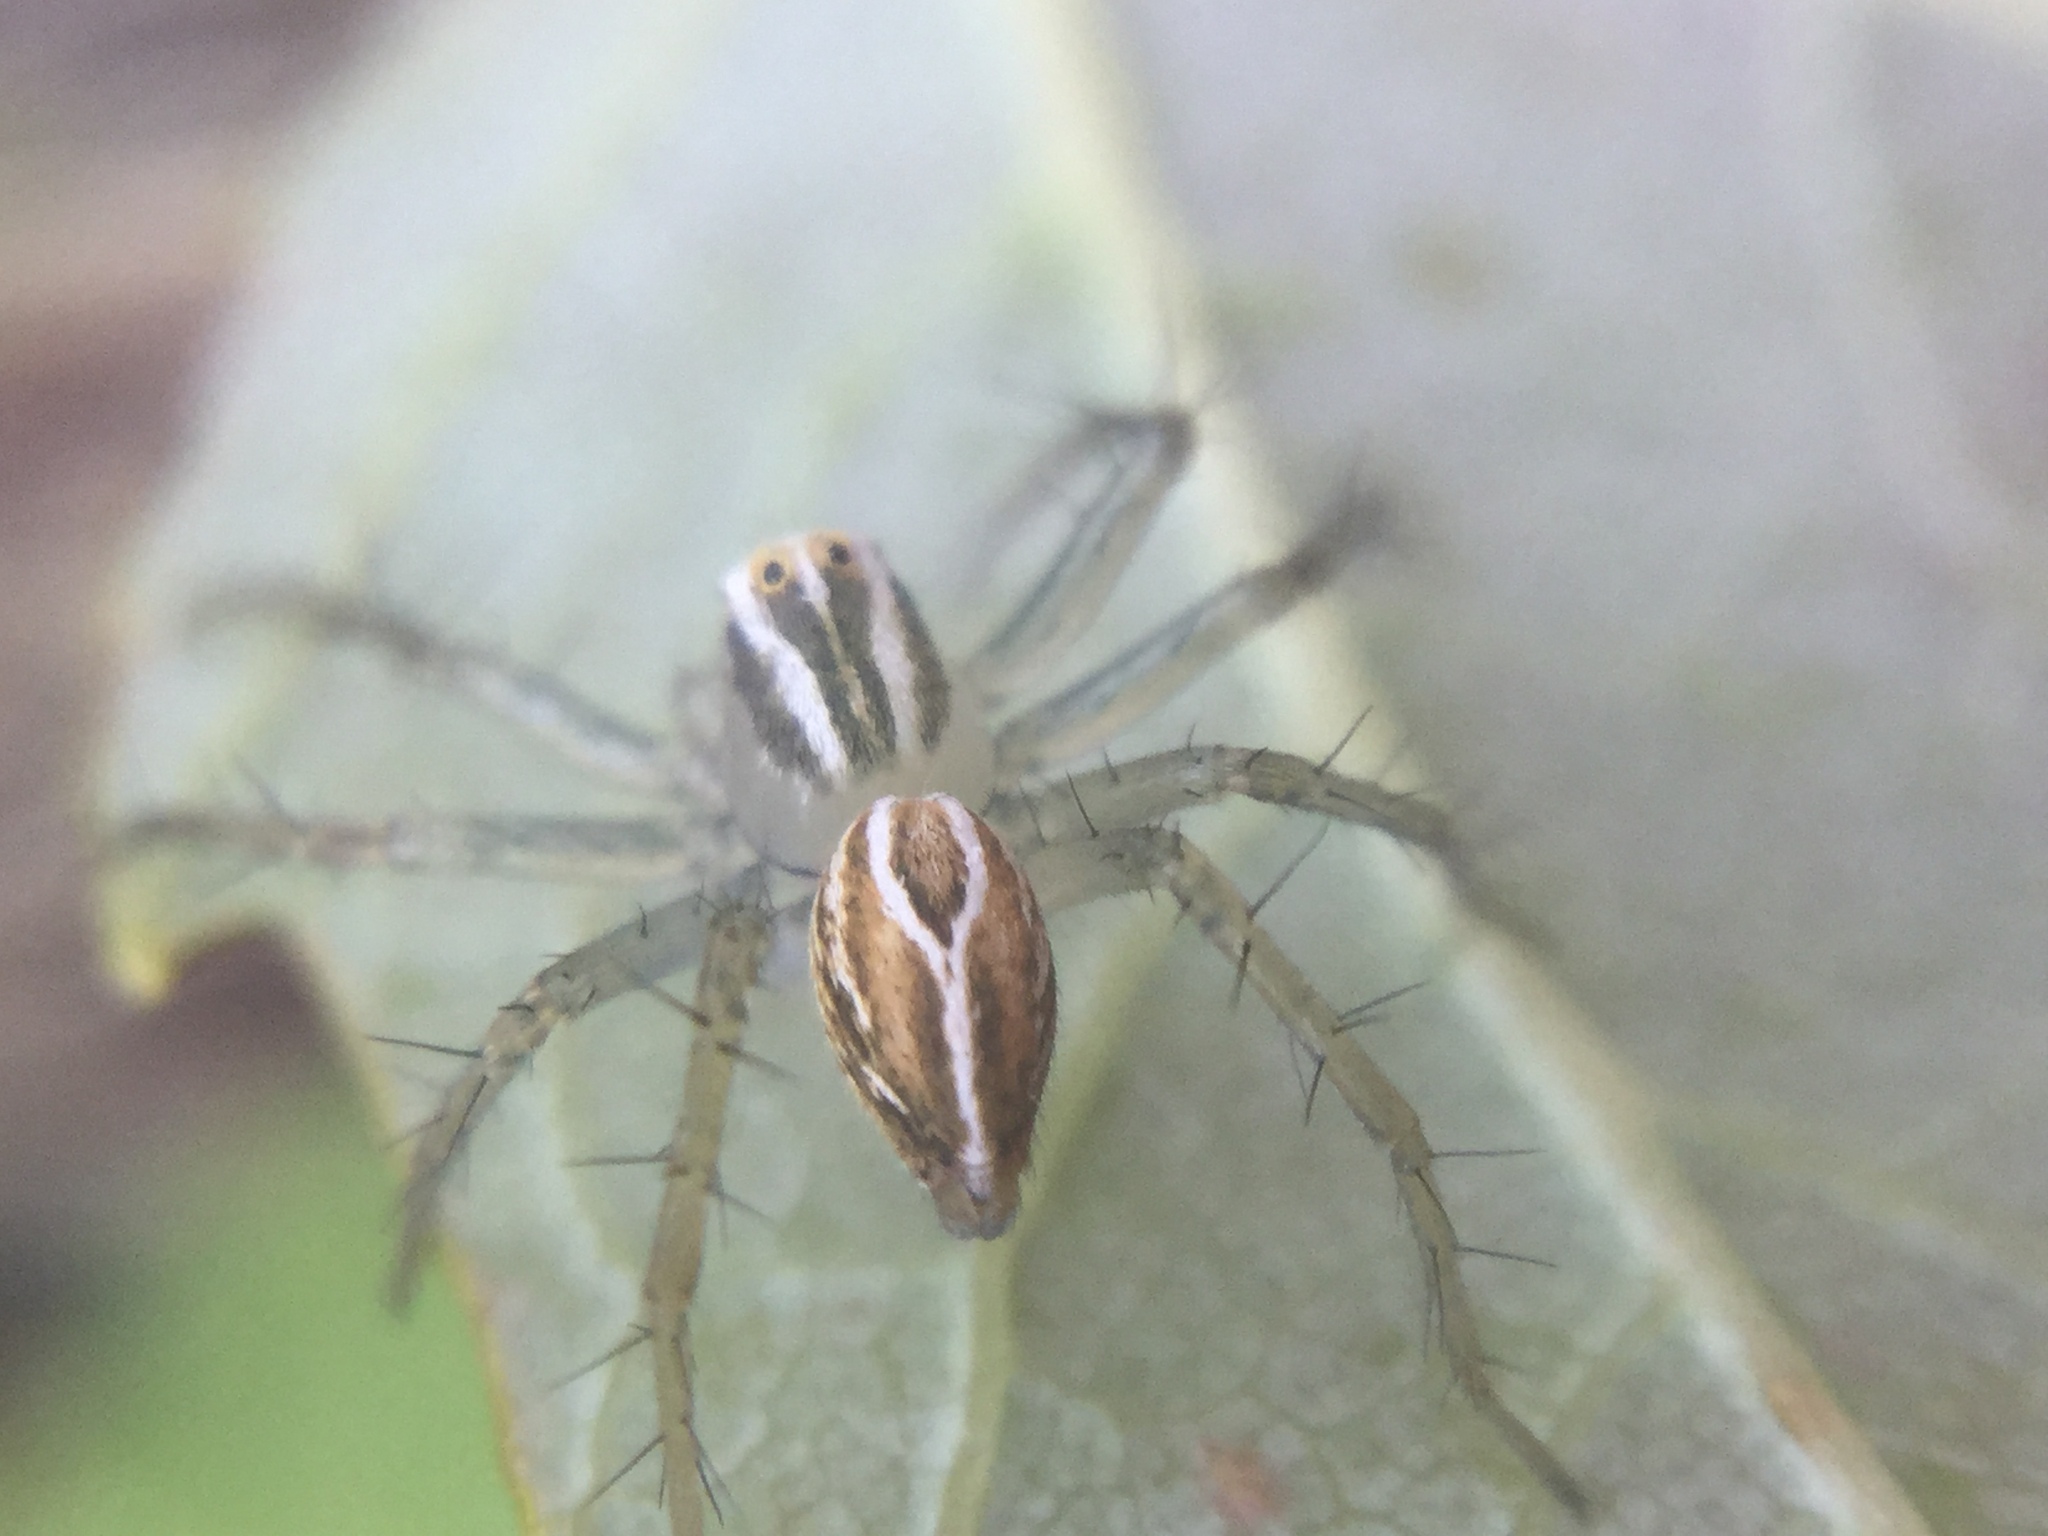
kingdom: Animalia
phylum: Arthropoda
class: Arachnida
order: Araneae
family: Oxyopidae
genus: Oxyopes
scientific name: Oxyopes salticus
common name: Lynx spiders
